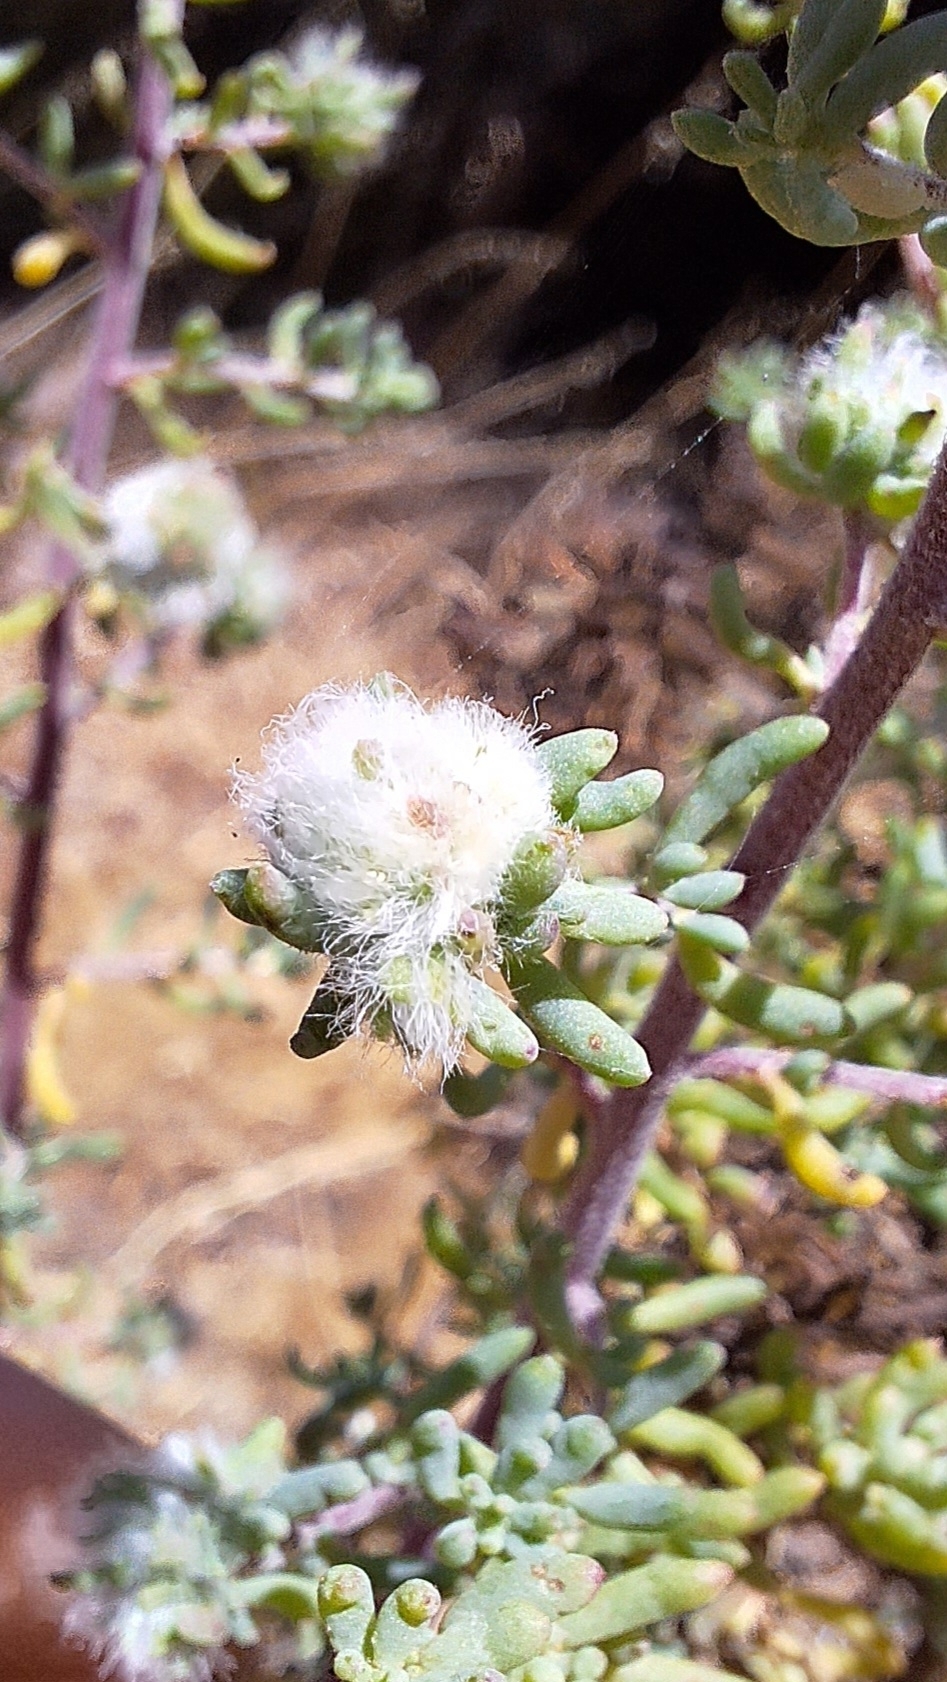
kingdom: Animalia
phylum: Arthropoda
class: Insecta
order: Diptera
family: Cecidomyiidae
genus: Dactylasioptera
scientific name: Dactylasioptera milnae
